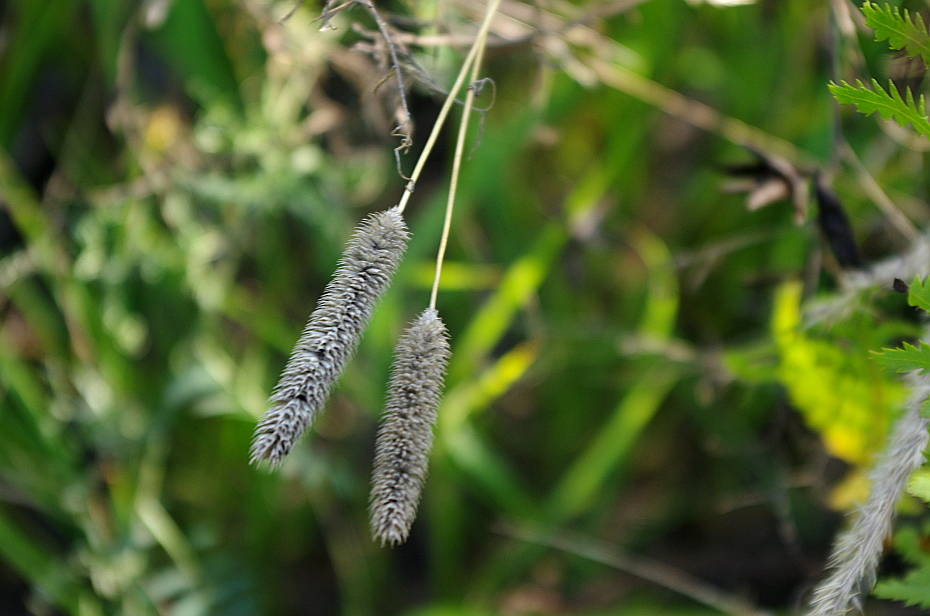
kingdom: Plantae
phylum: Tracheophyta
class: Liliopsida
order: Poales
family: Poaceae
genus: Phleum
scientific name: Phleum pratense
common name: Timothy grass
